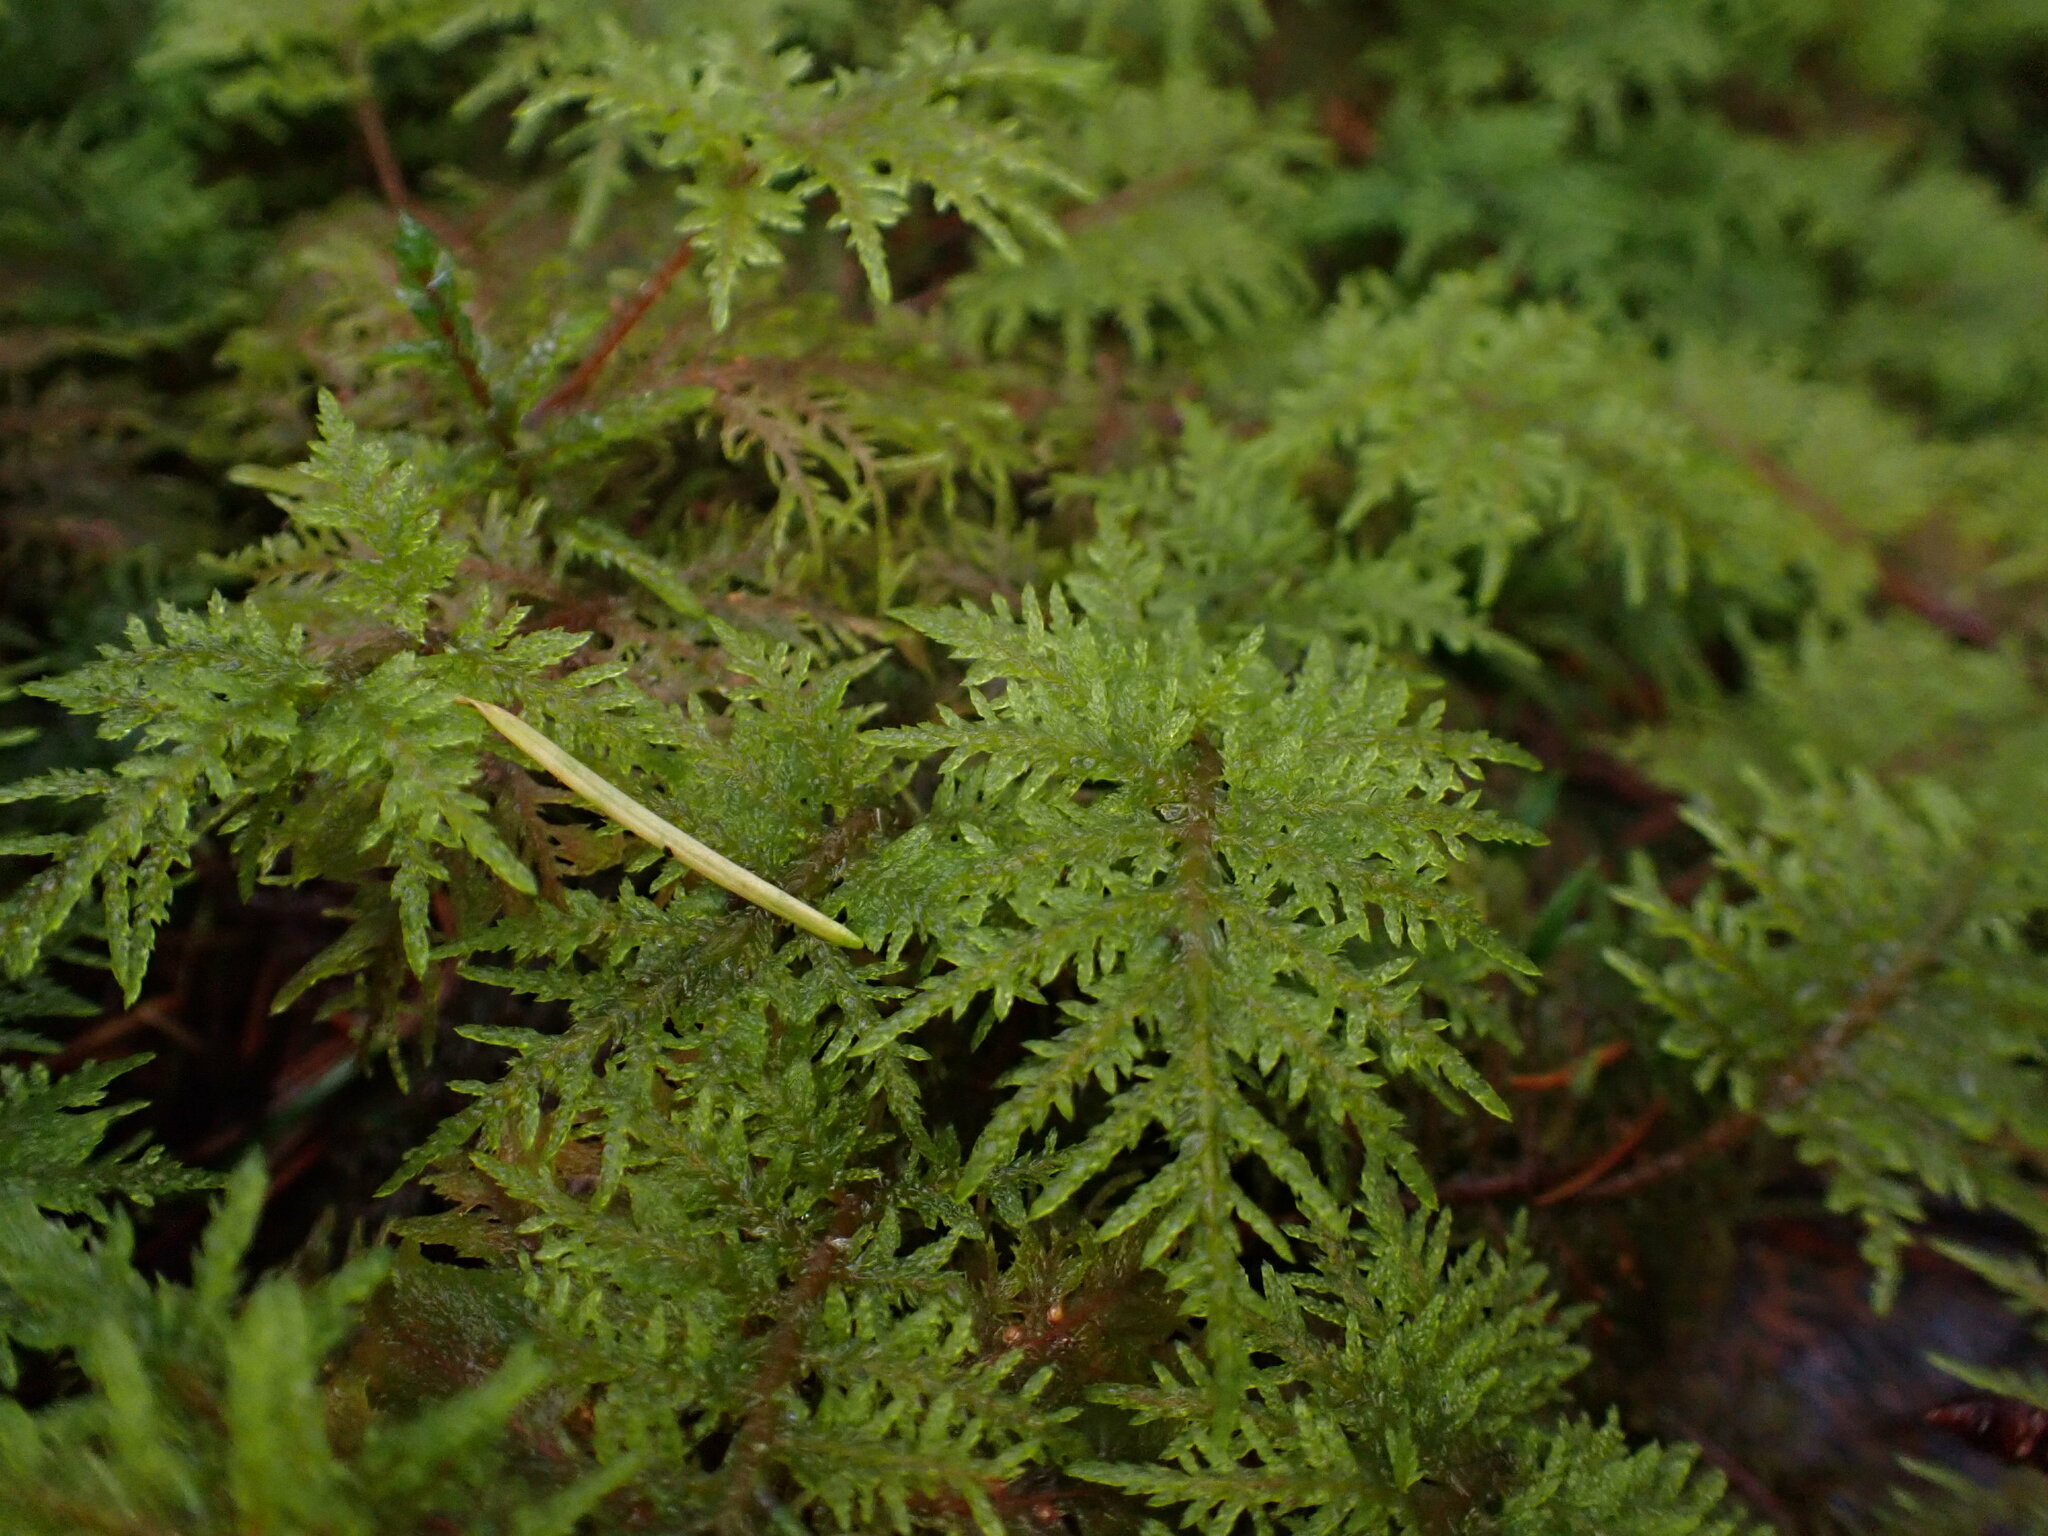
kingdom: Plantae
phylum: Bryophyta
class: Bryopsida
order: Hypnales
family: Hylocomiaceae
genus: Hylocomium
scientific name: Hylocomium splendens
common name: Stairstep moss
